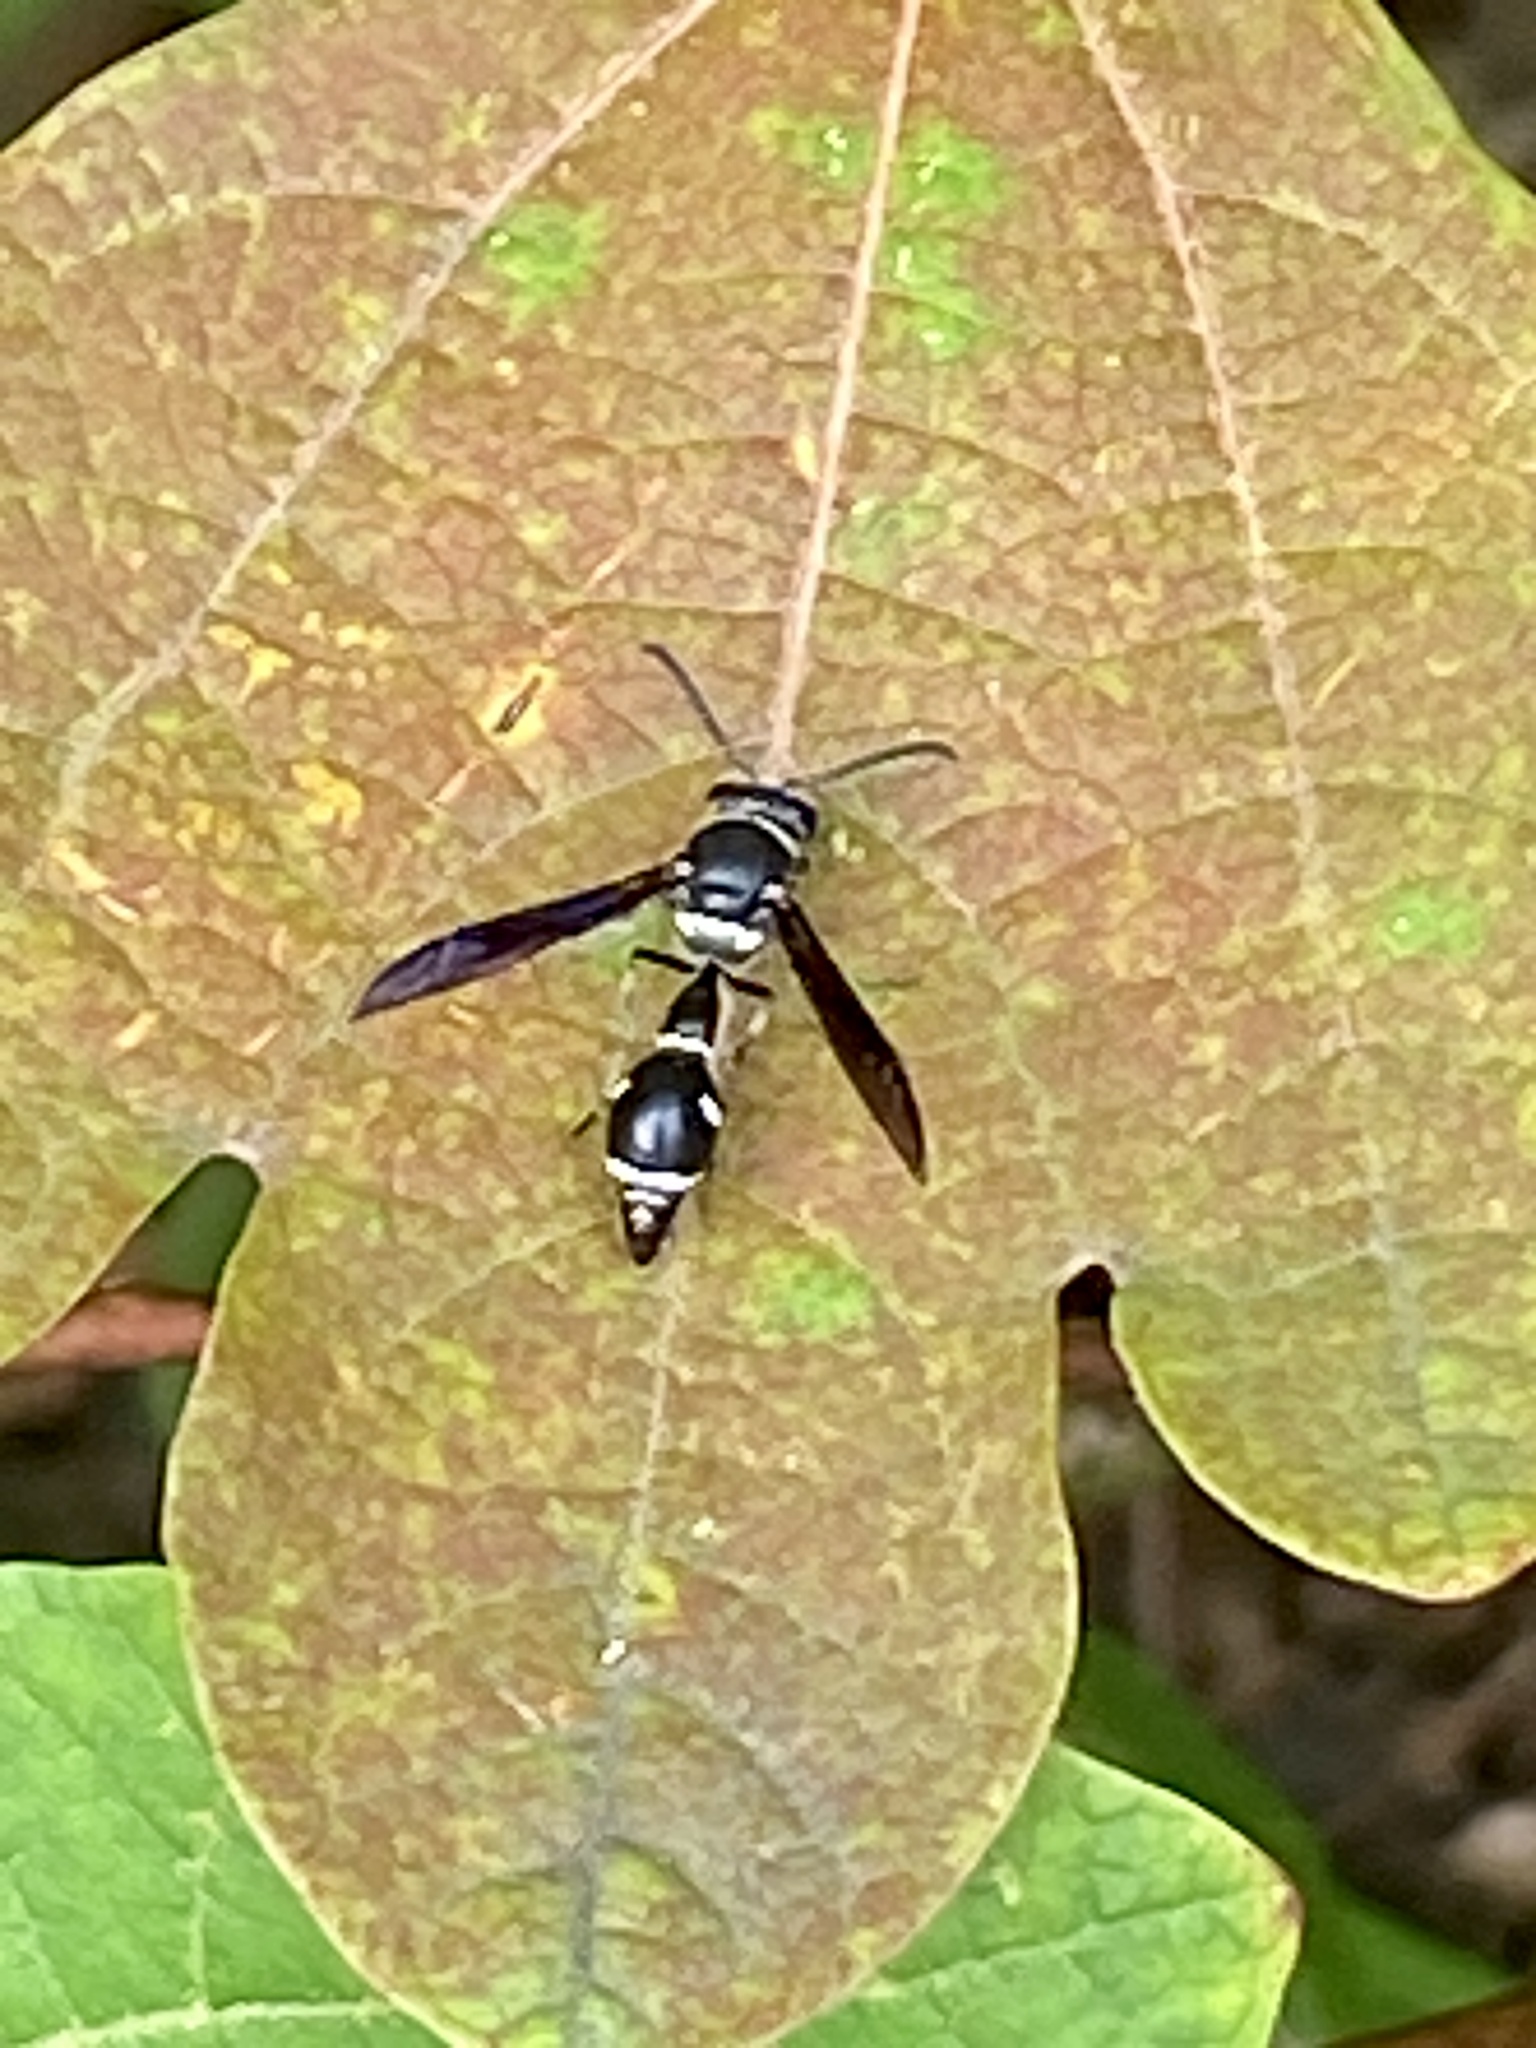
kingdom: Animalia
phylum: Arthropoda
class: Insecta
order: Hymenoptera
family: Vespidae
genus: Eumenes
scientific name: Eumenes fraternus
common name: Fraternal potter wasp
